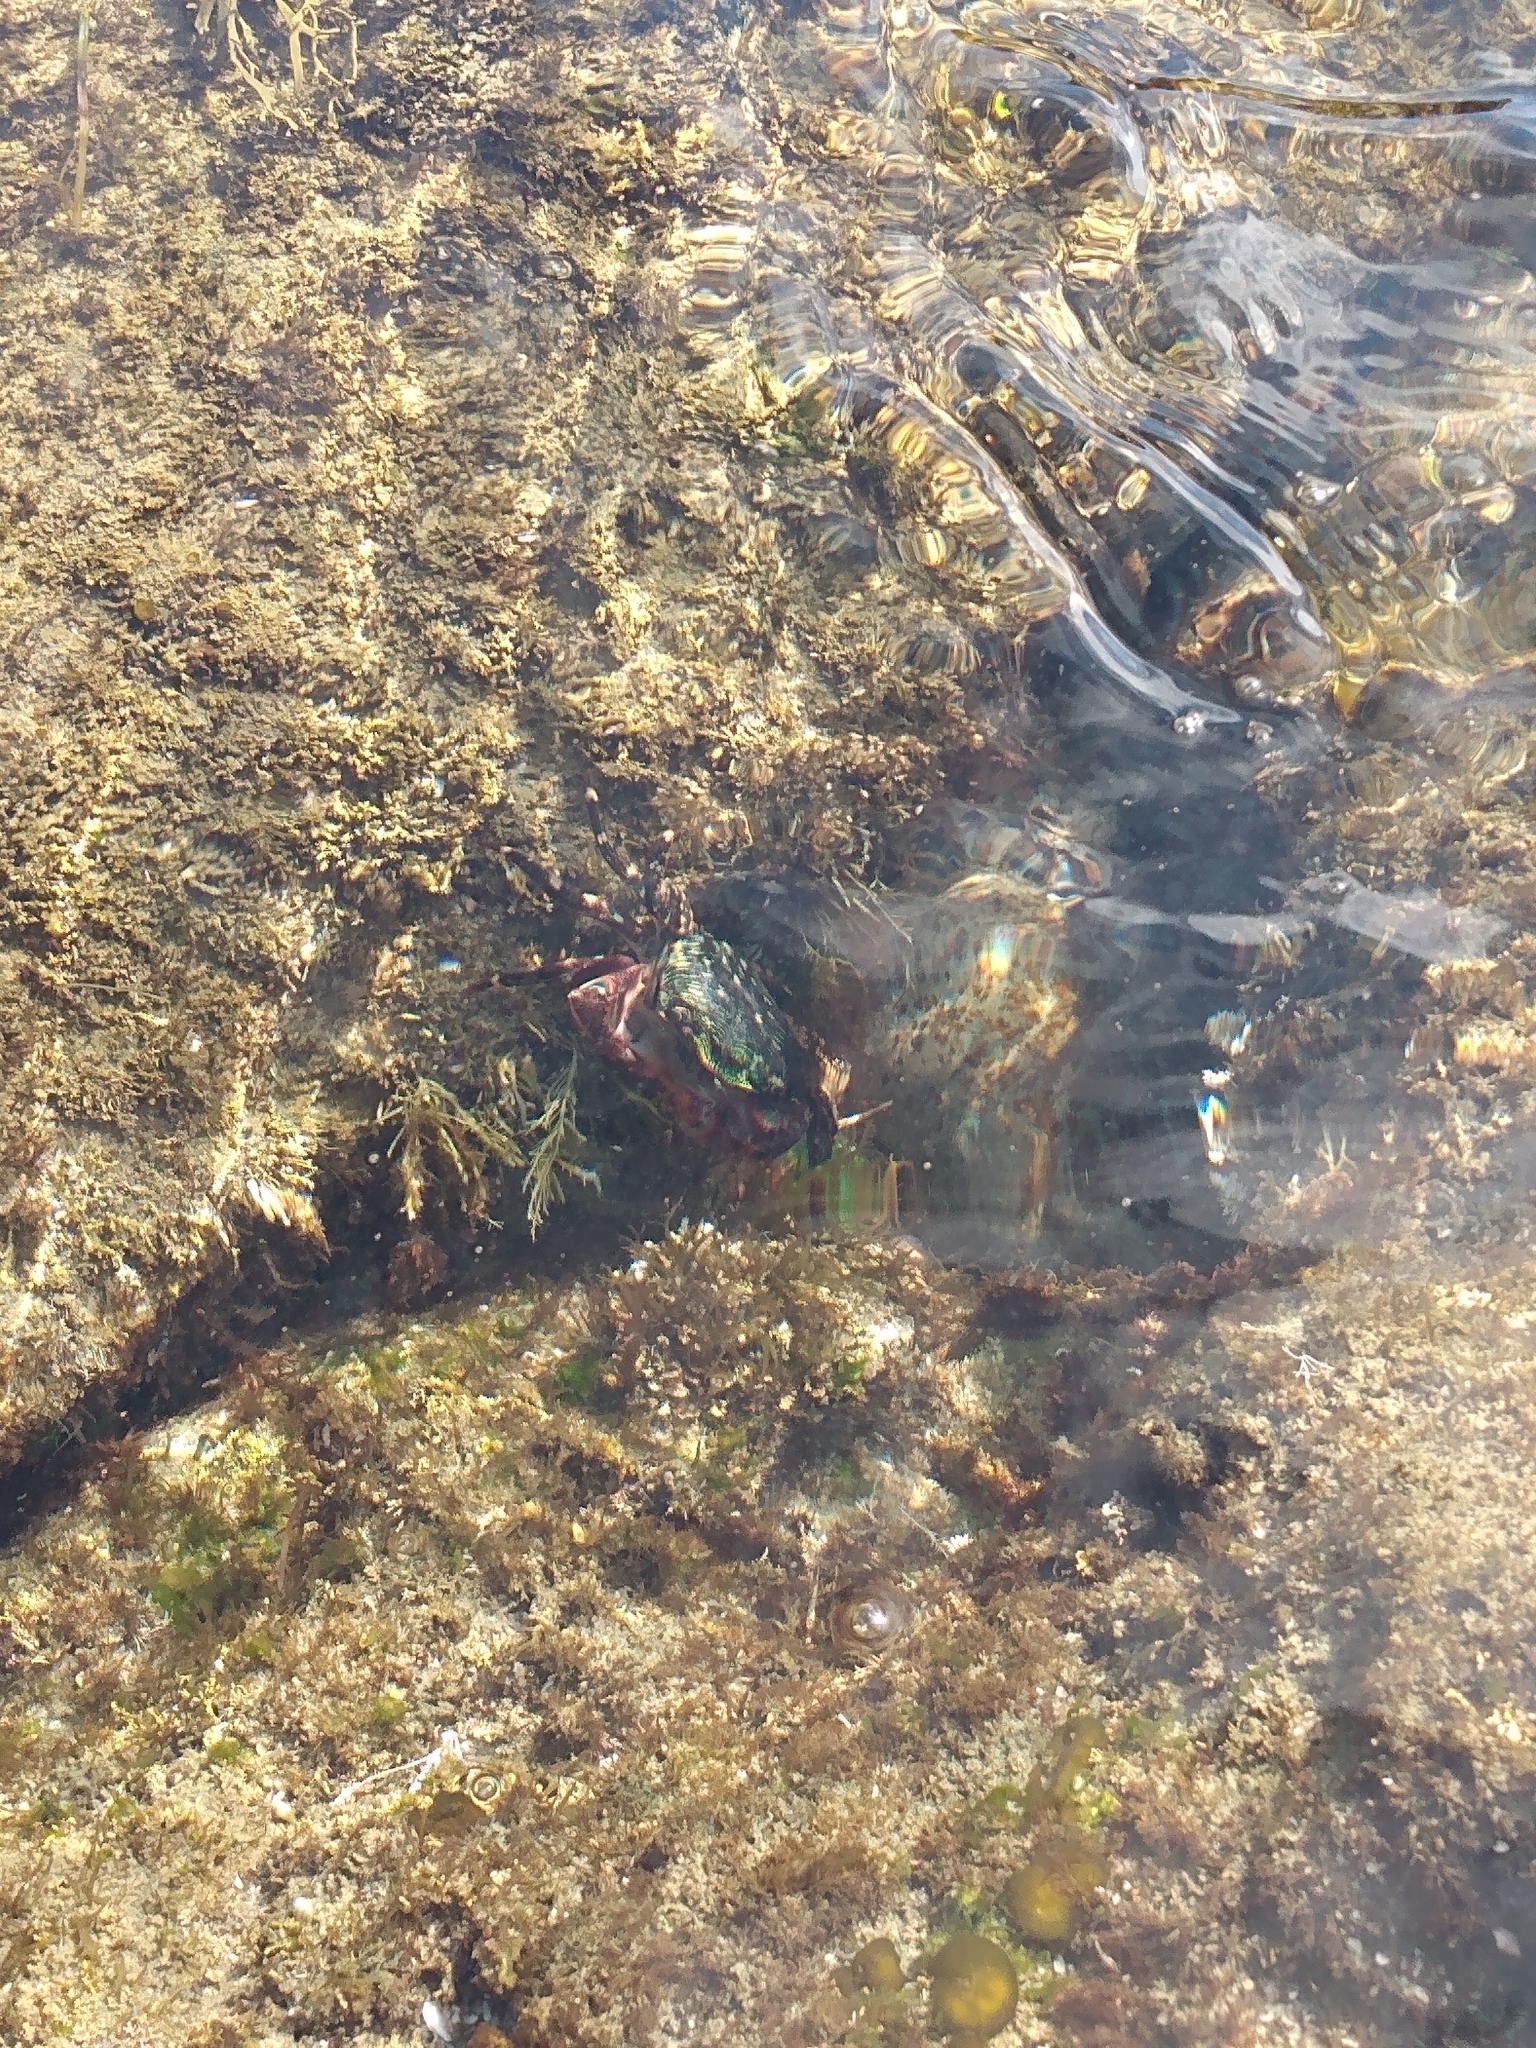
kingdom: Animalia
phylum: Arthropoda
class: Malacostraca
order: Decapoda
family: Grapsidae
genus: Pachygrapsus
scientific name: Pachygrapsus crassipes
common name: Striped shore crab
